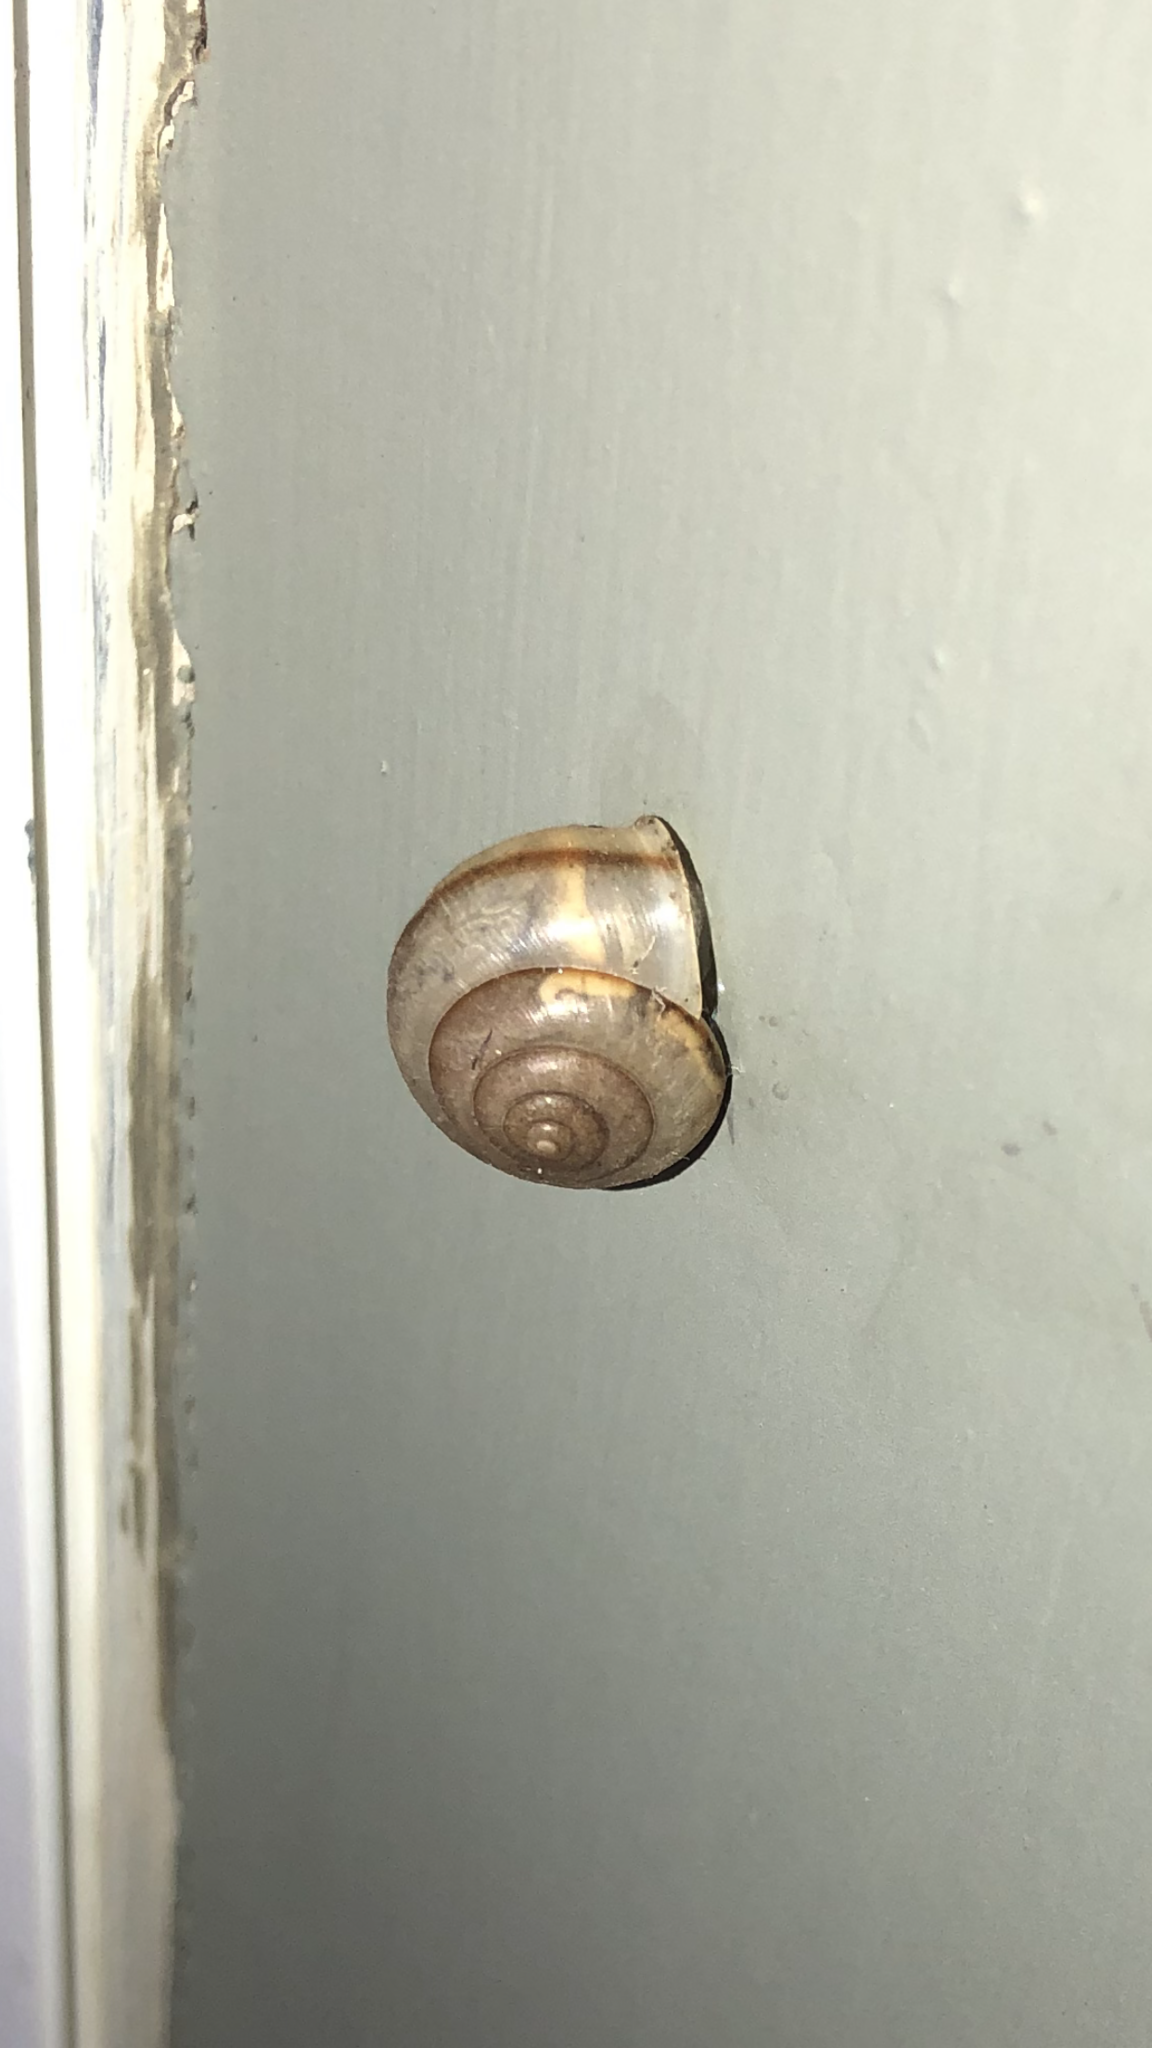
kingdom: Animalia
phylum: Mollusca
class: Gastropoda
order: Stylommatophora
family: Camaenidae
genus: Bradybaena
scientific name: Bradybaena similaris
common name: Asian trampsnail
